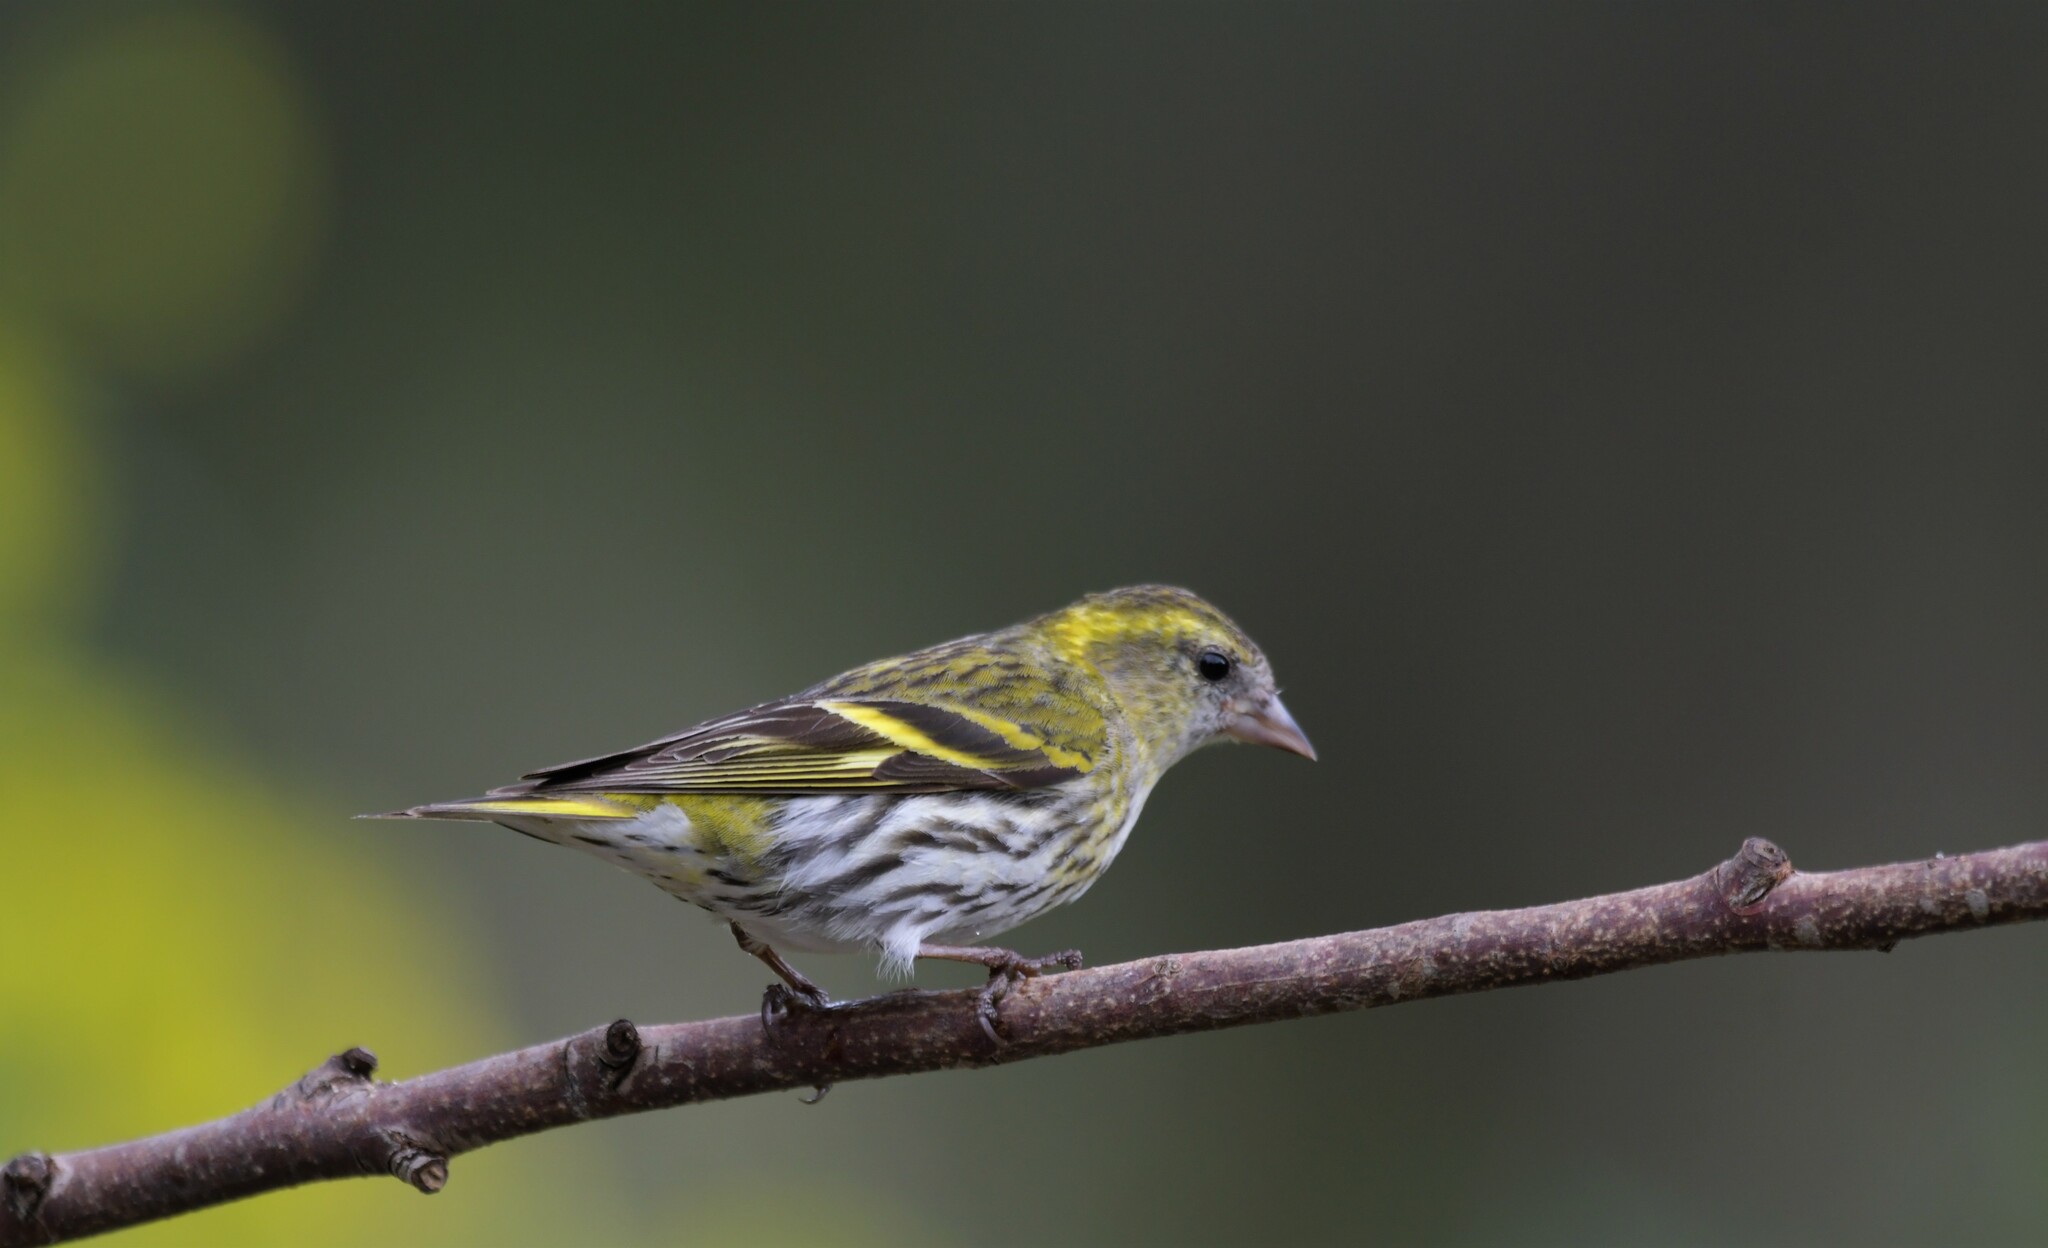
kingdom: Animalia
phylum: Chordata
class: Aves
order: Passeriformes
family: Fringillidae
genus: Spinus
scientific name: Spinus spinus
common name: Eurasian siskin
